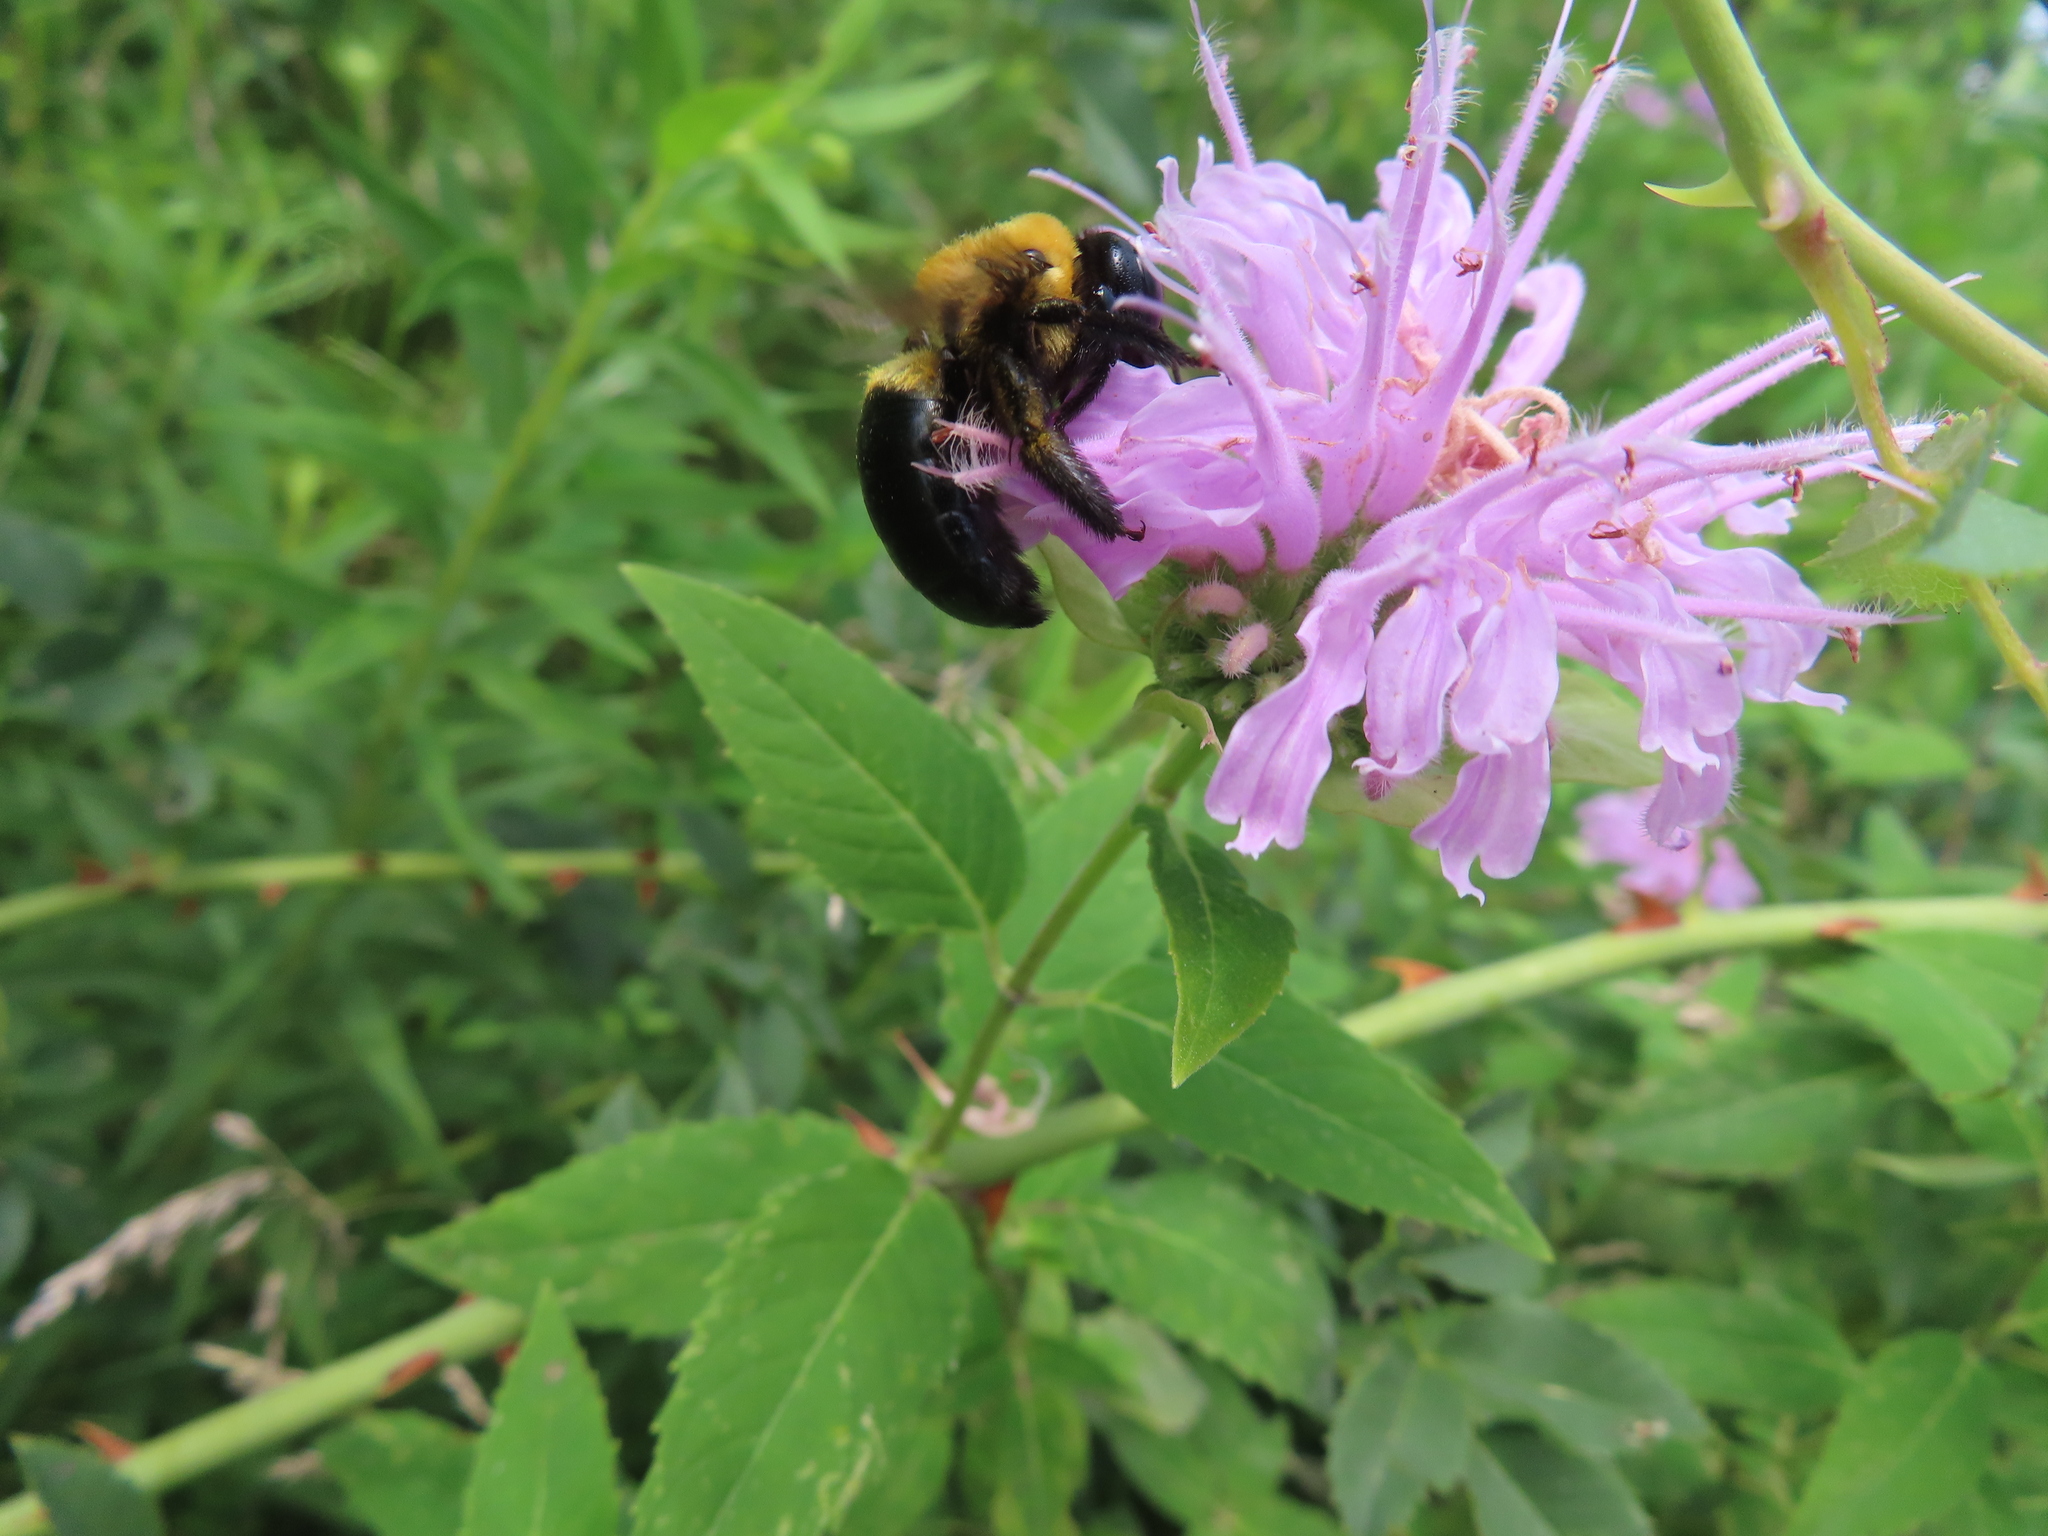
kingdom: Animalia
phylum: Arthropoda
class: Insecta
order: Hymenoptera
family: Apidae
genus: Xylocopa
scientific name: Xylocopa virginica
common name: Carpenter bee
